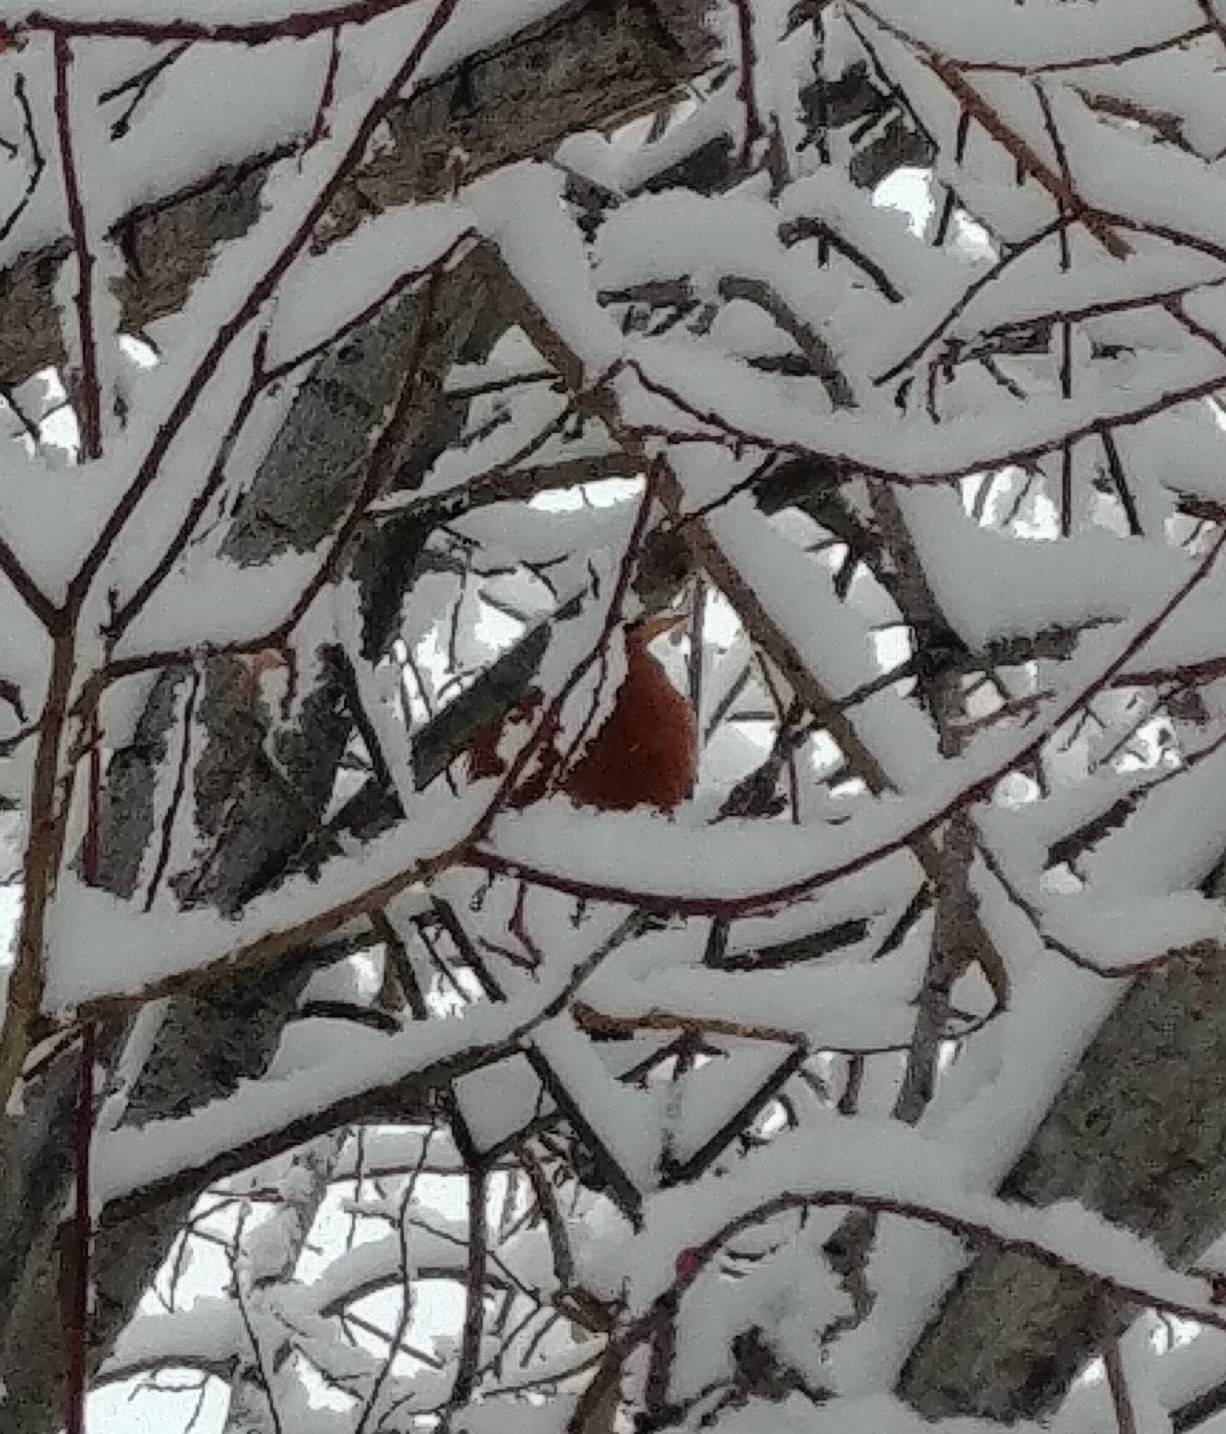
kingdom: Animalia
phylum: Chordata
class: Aves
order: Passeriformes
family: Turdidae
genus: Turdus
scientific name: Turdus migratorius
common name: American robin
